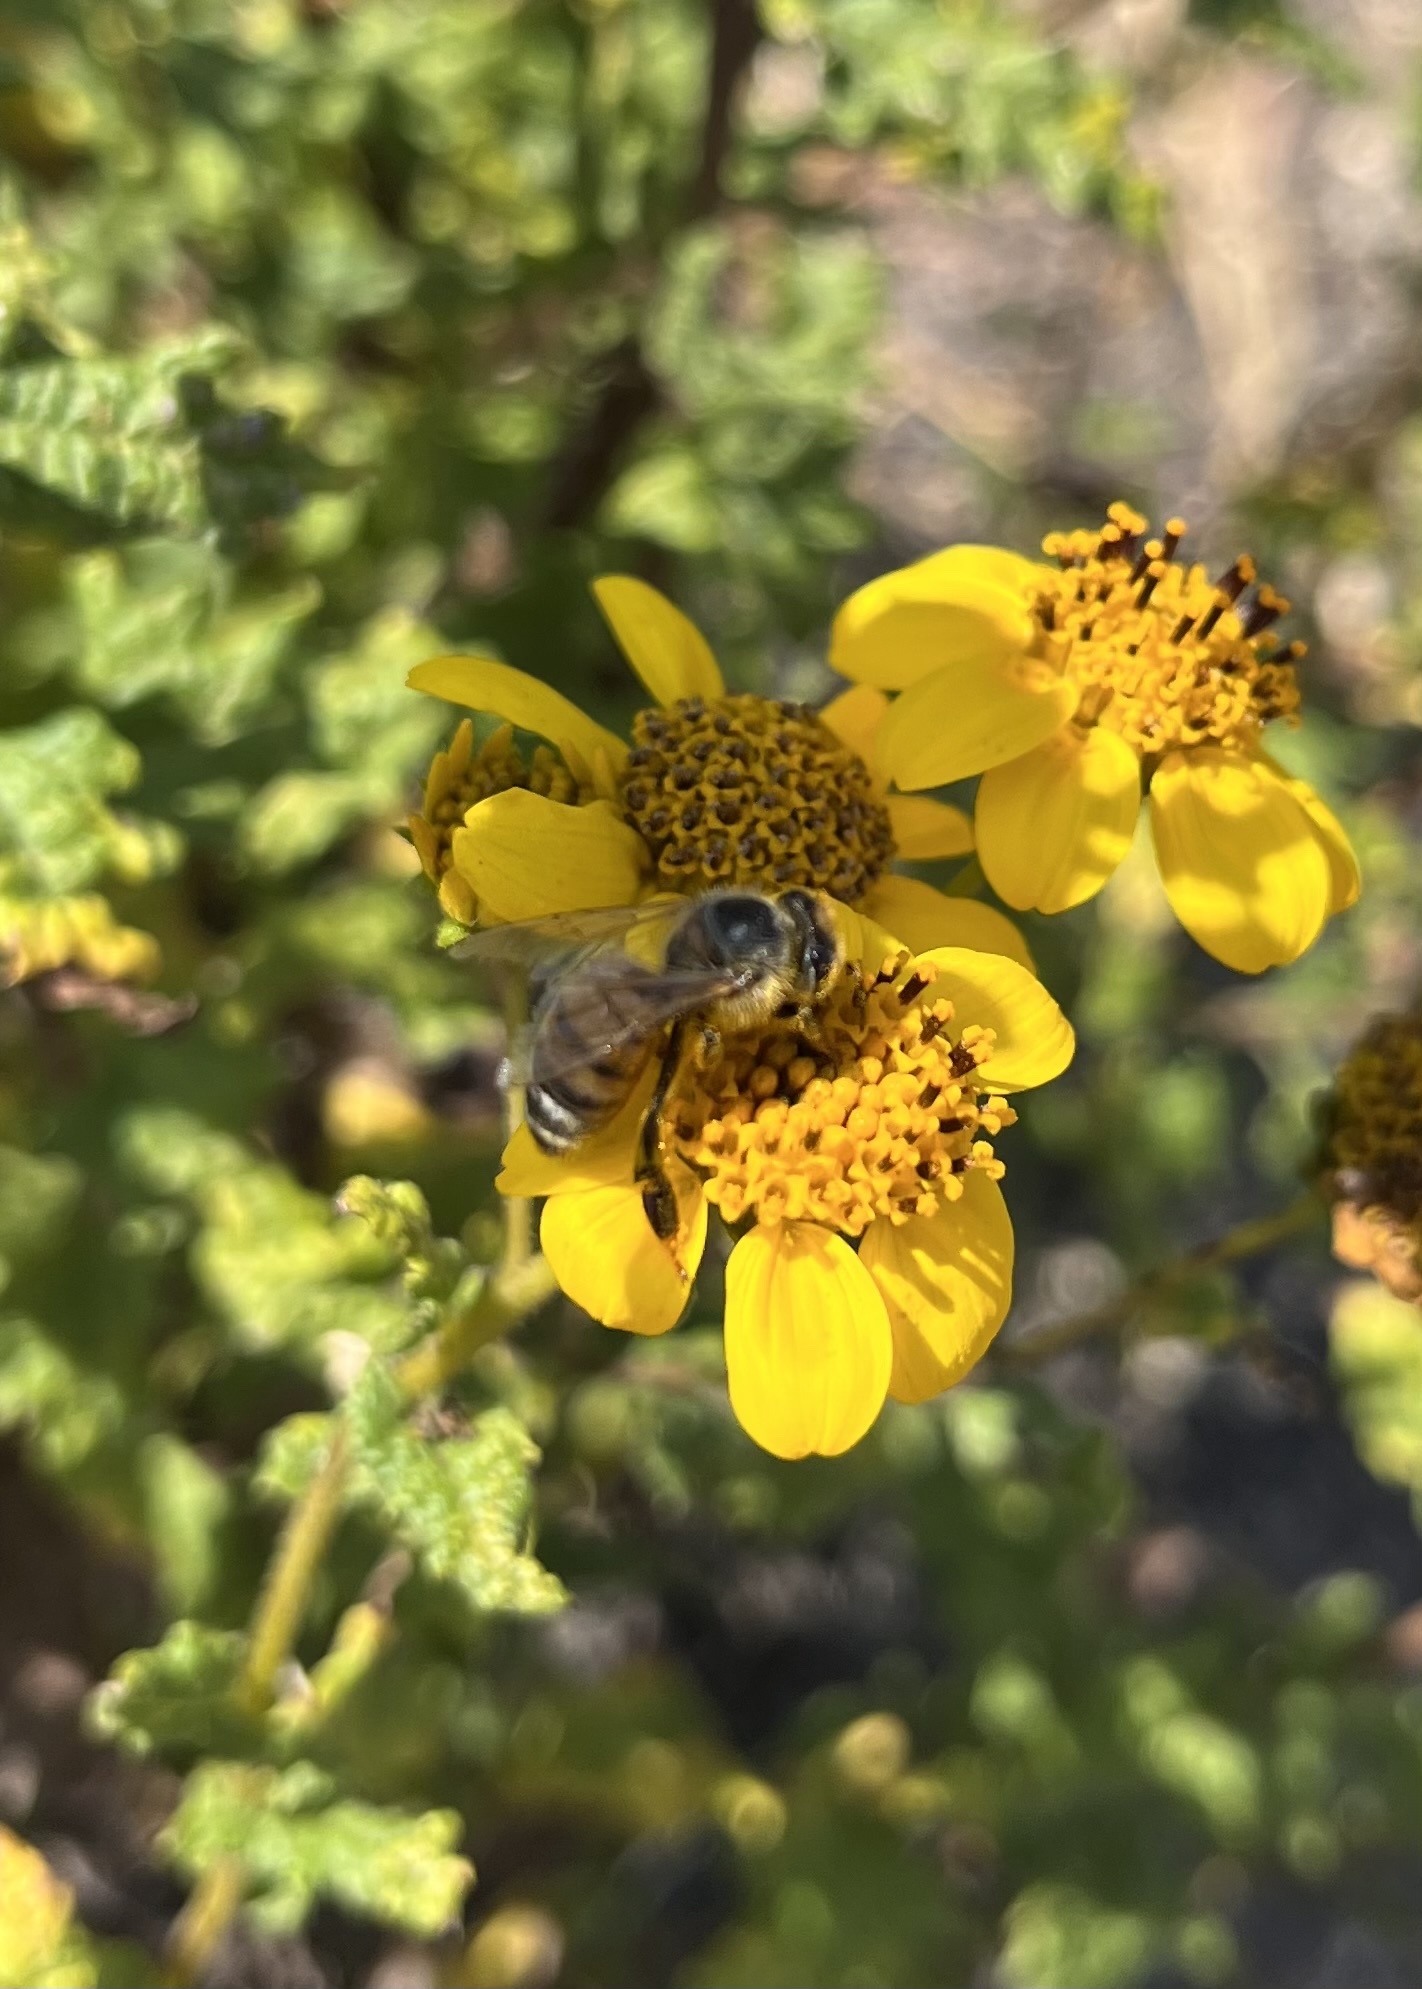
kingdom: Animalia
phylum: Arthropoda
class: Insecta
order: Hymenoptera
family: Apidae
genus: Apis
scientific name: Apis mellifera
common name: Honey bee
